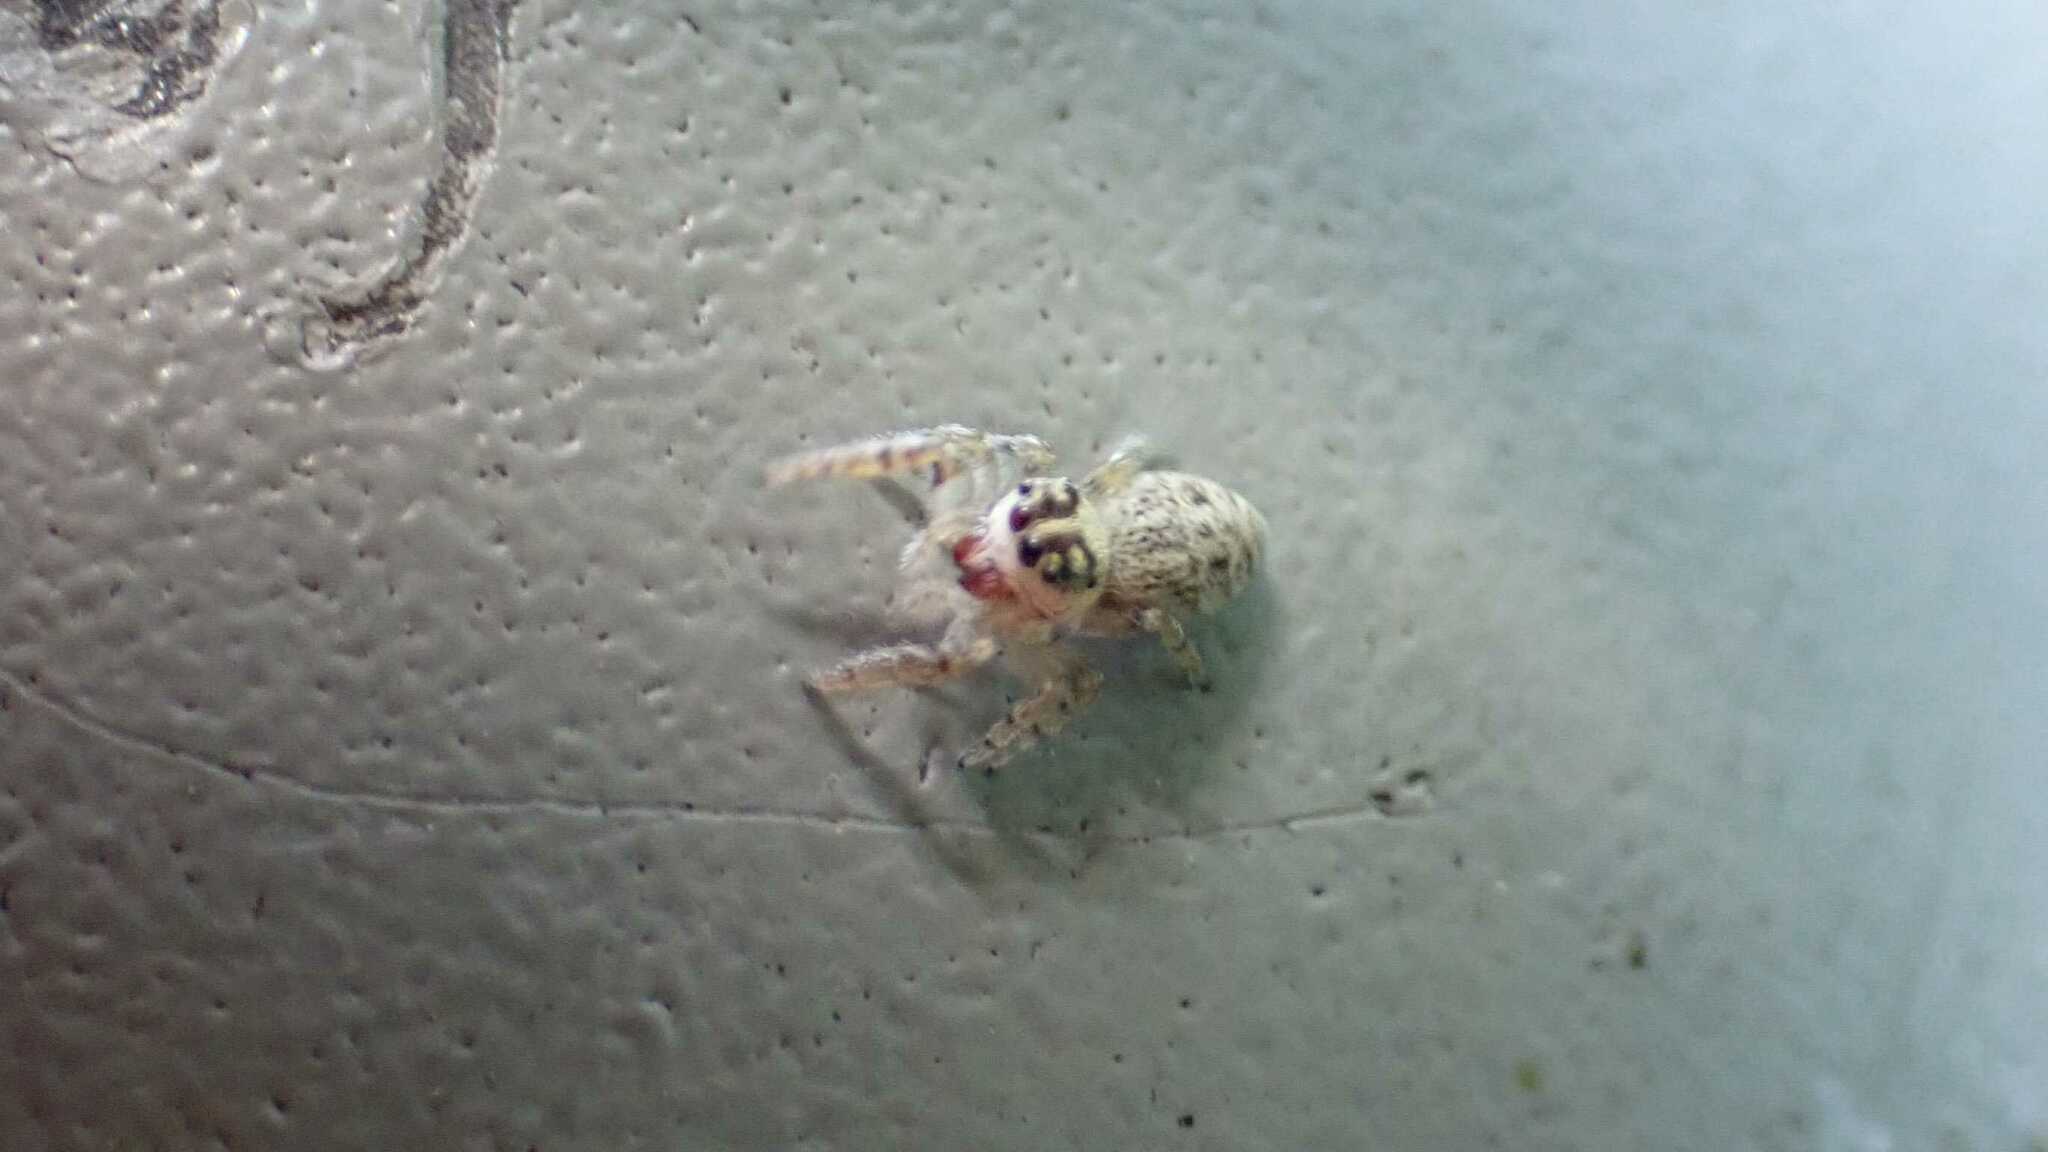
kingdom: Animalia
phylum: Arthropoda
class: Arachnida
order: Araneae
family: Salticidae
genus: Macaroeris
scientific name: Macaroeris nidicolens
